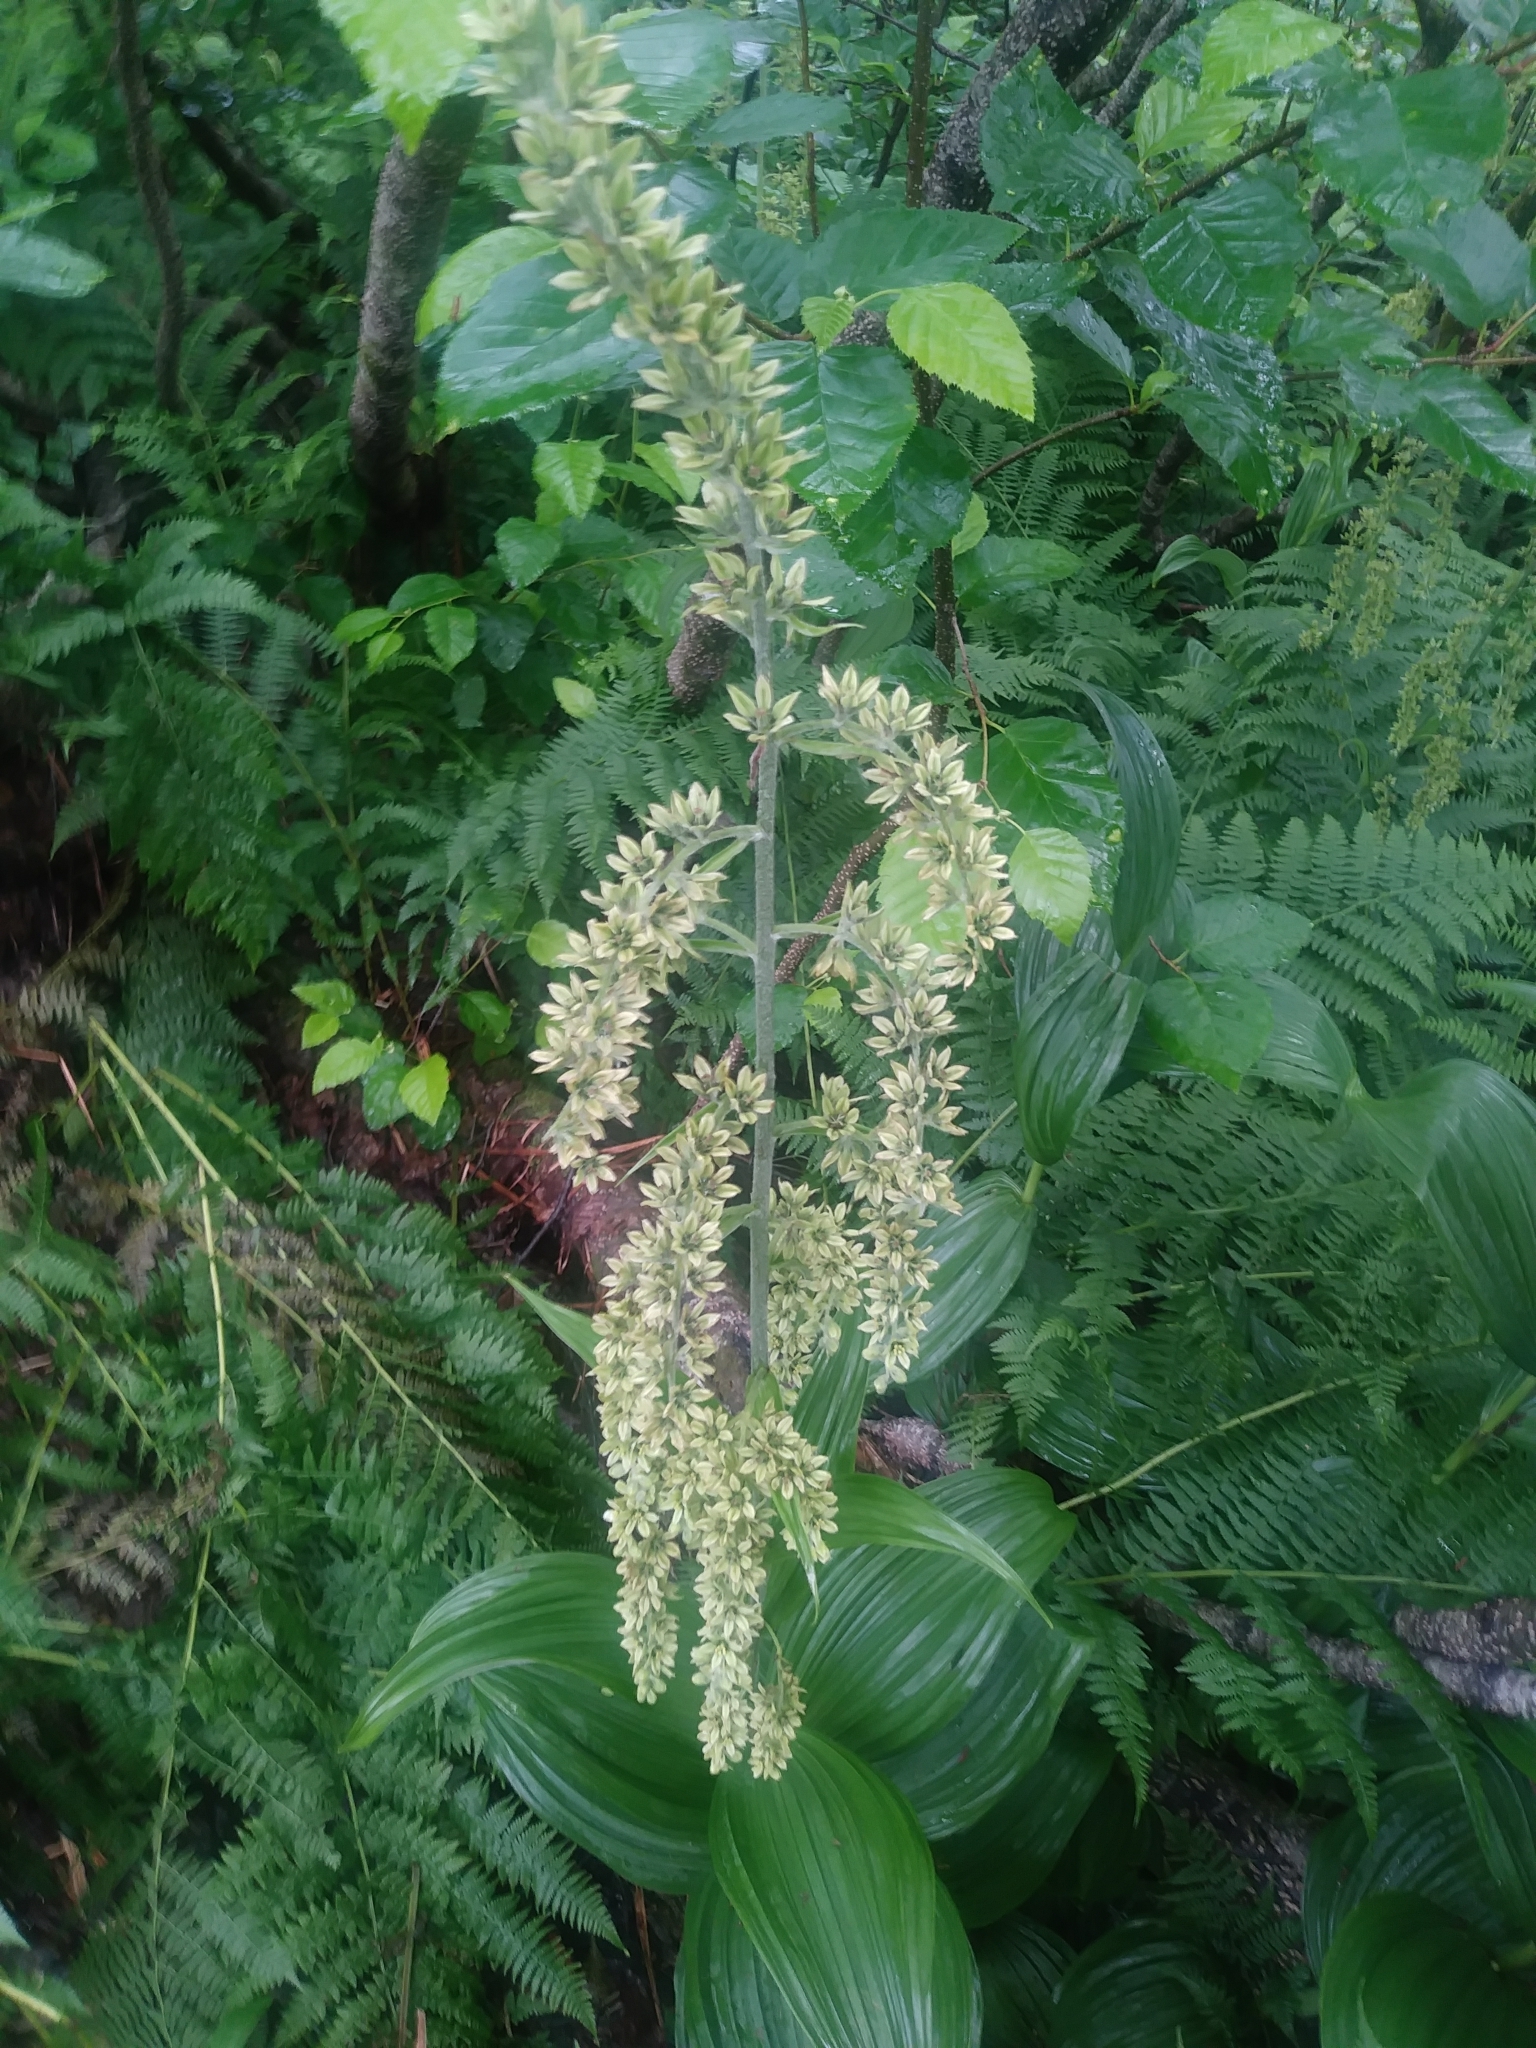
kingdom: Plantae
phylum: Tracheophyta
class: Liliopsida
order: Liliales
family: Melanthiaceae
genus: Veratrum
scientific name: Veratrum viride
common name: American false hellebore
